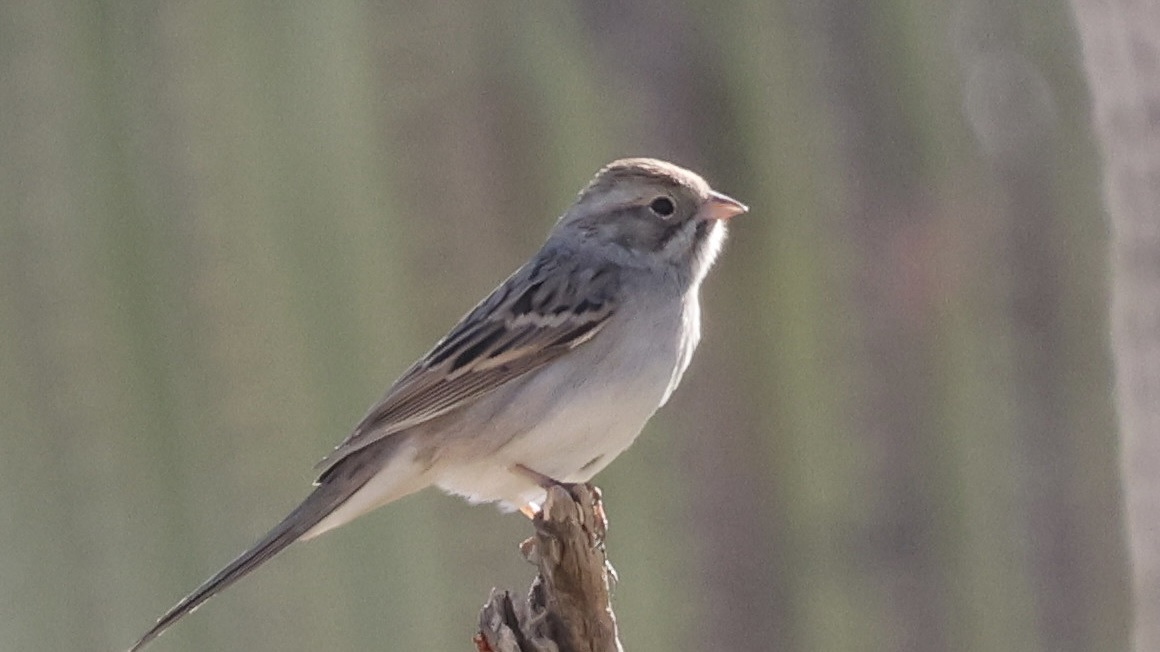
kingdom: Animalia
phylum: Chordata
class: Aves
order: Passeriformes
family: Passerellidae
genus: Spizella
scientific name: Spizella breweri
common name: Brewer's sparrow
